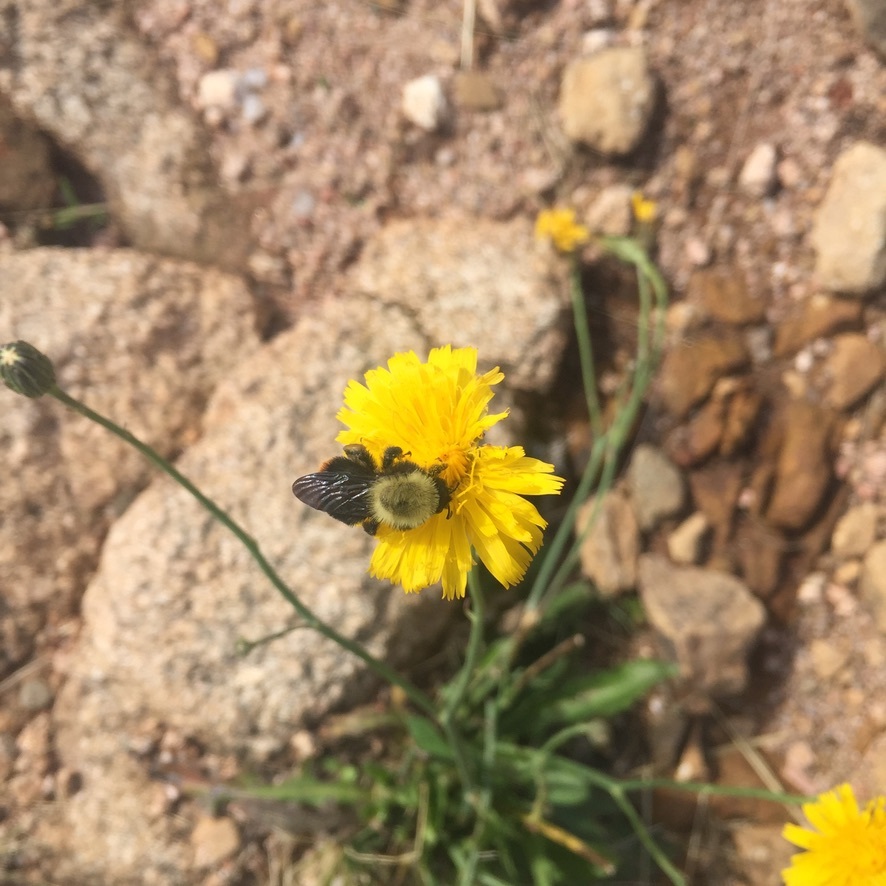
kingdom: Animalia
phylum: Arthropoda
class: Insecta
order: Hymenoptera
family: Apidae
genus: Bombus
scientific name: Bombus bellicosus
